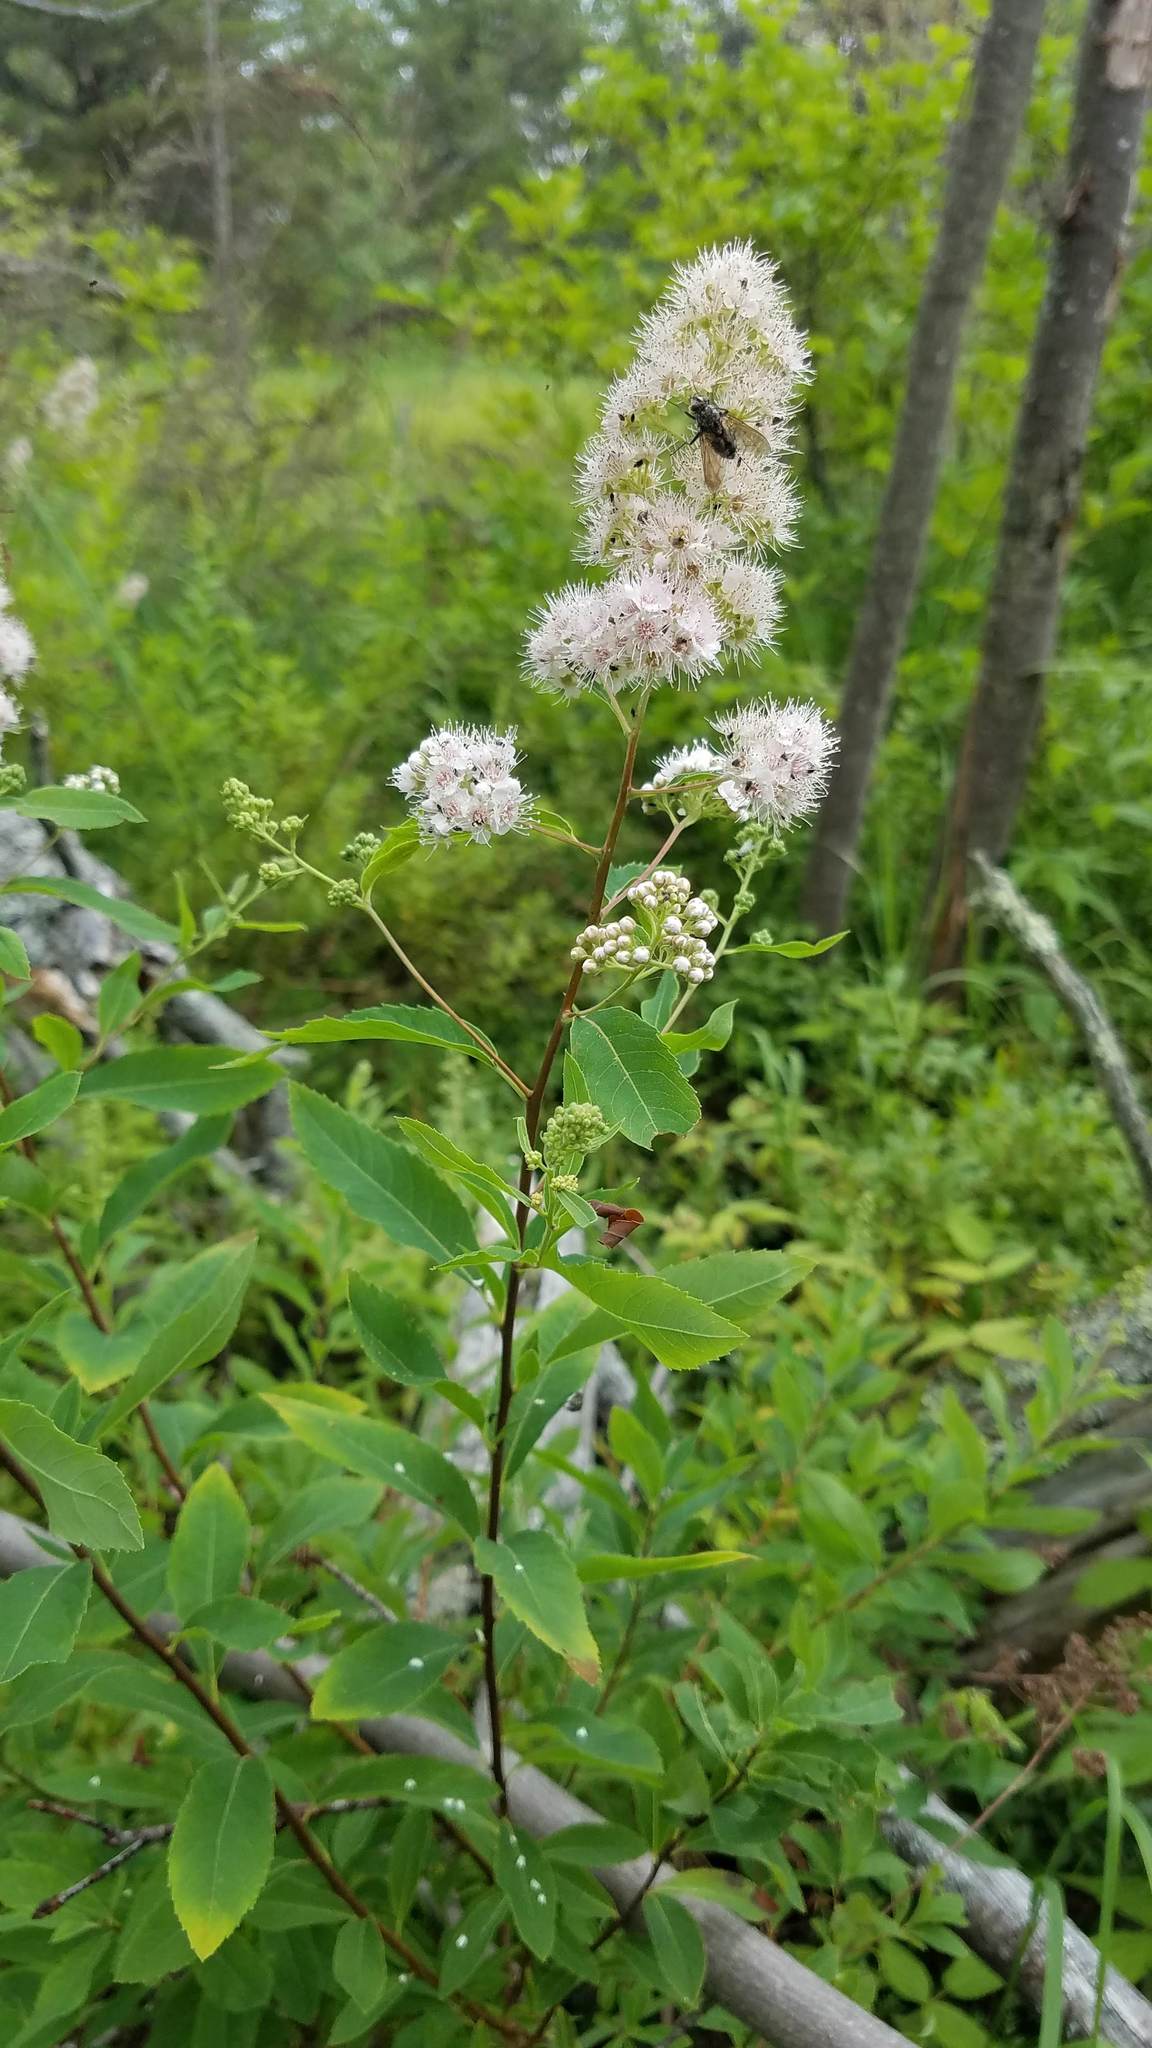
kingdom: Plantae
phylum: Tracheophyta
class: Magnoliopsida
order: Rosales
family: Rosaceae
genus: Spiraea
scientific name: Spiraea alba
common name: Pale bridewort
